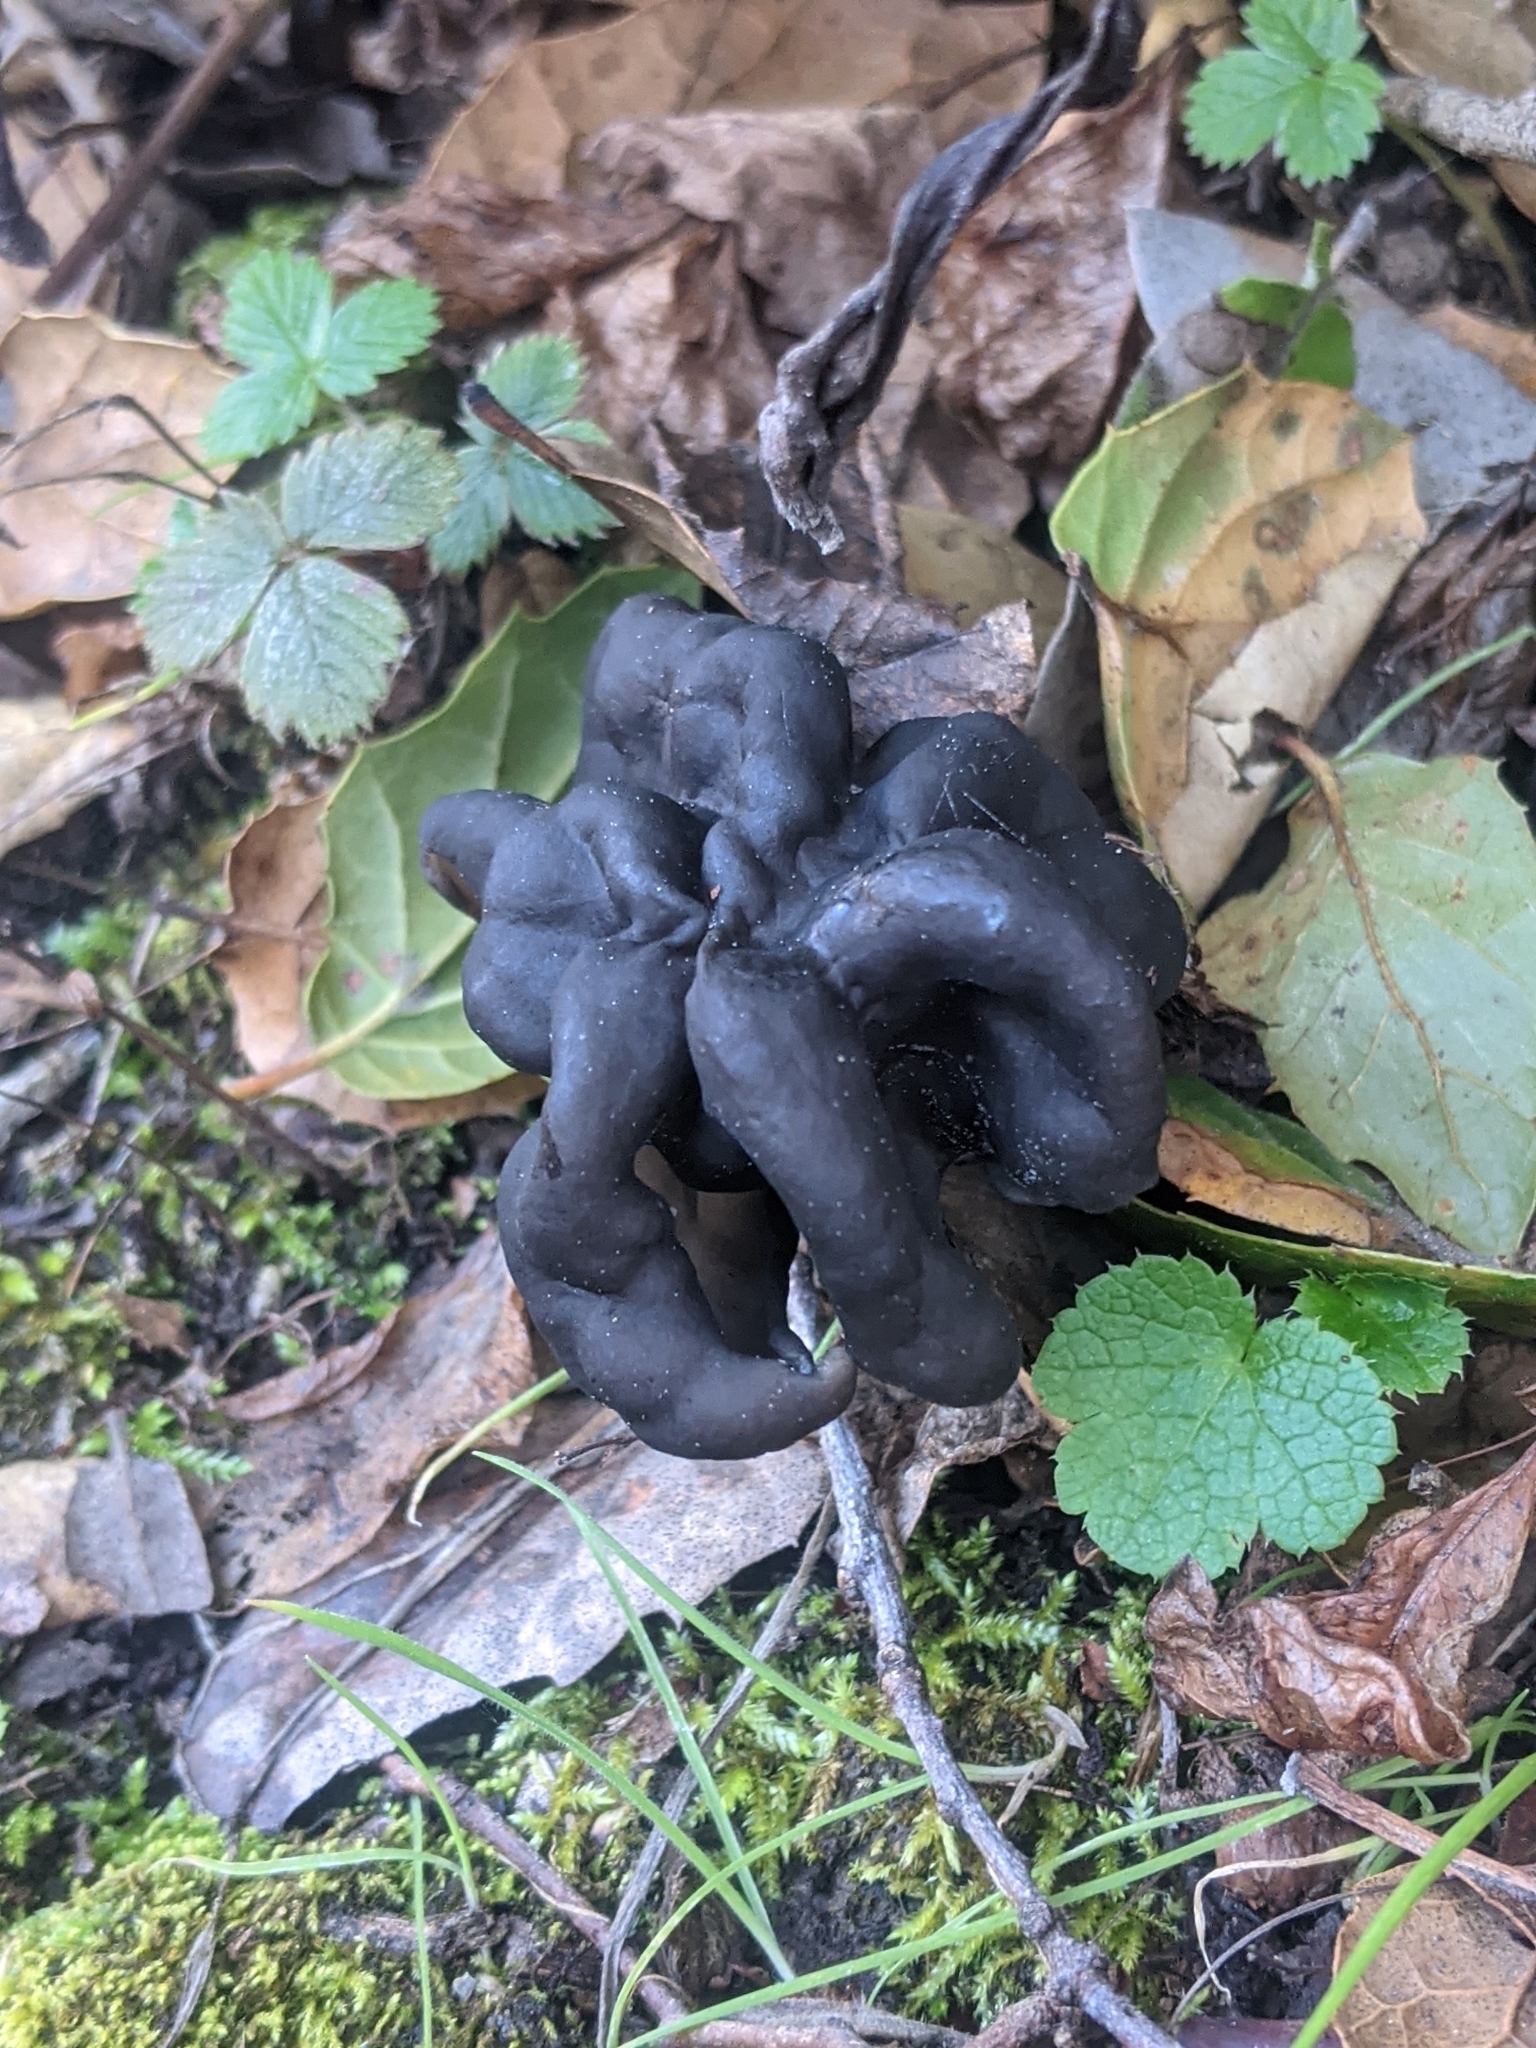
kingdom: Fungi
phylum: Ascomycota
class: Pezizomycetes
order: Pezizales
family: Helvellaceae
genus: Helvella
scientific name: Helvella dryophila
